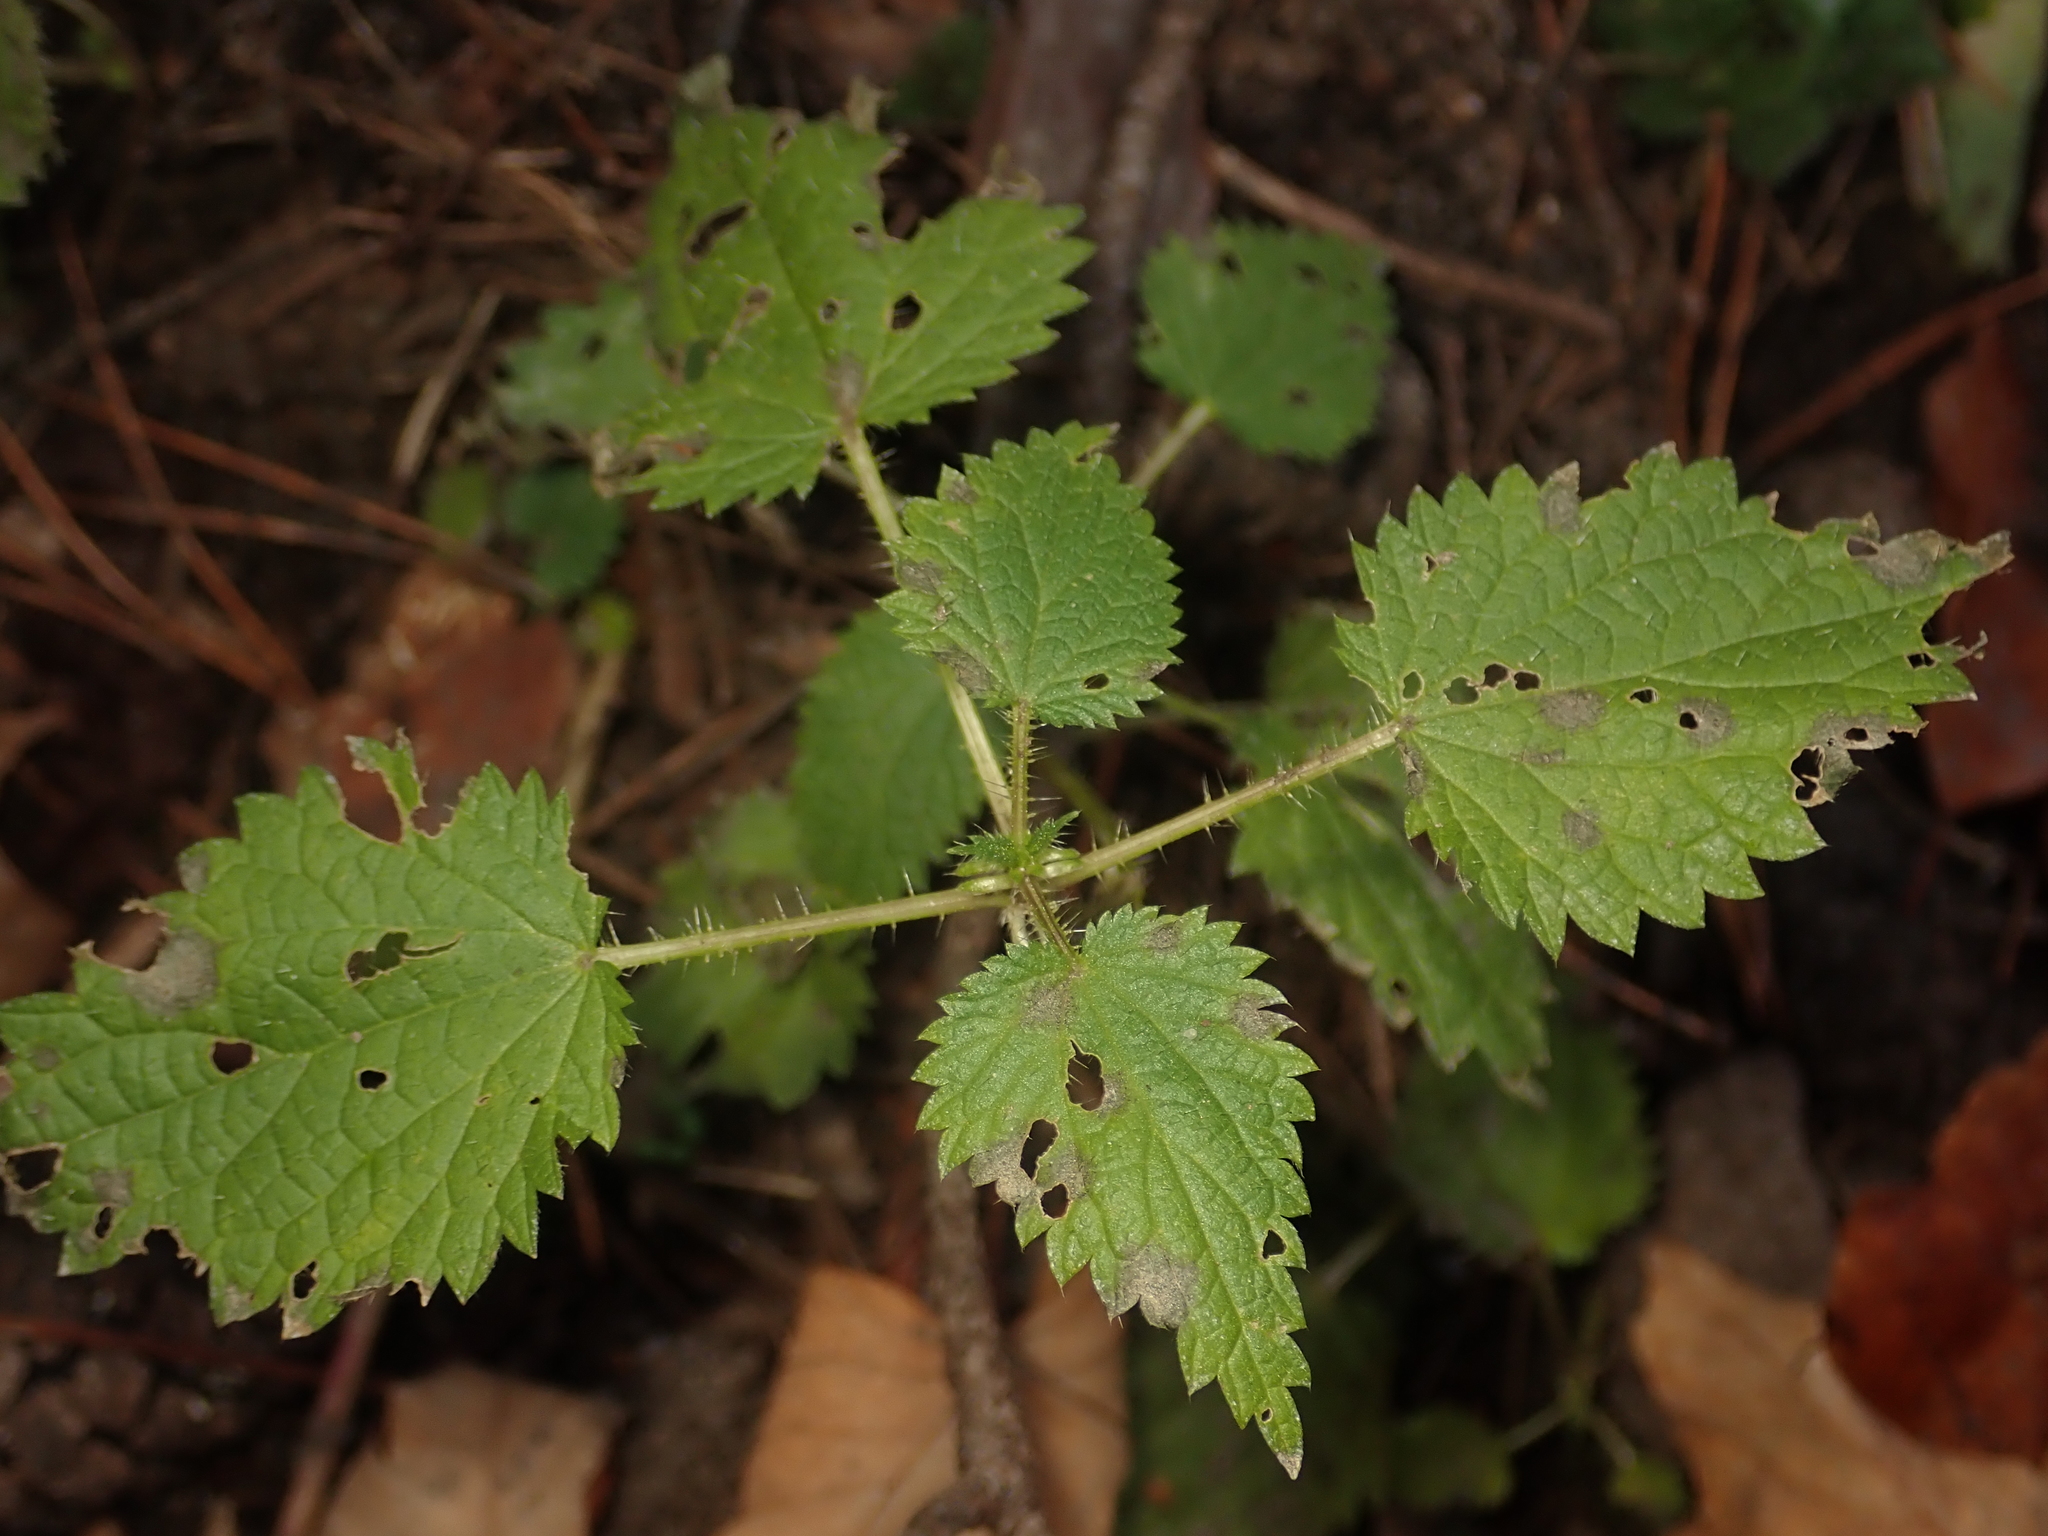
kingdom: Plantae
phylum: Tracheophyta
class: Magnoliopsida
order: Rosales
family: Urticaceae
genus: Urtica
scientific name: Urtica dioica
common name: Common nettle
